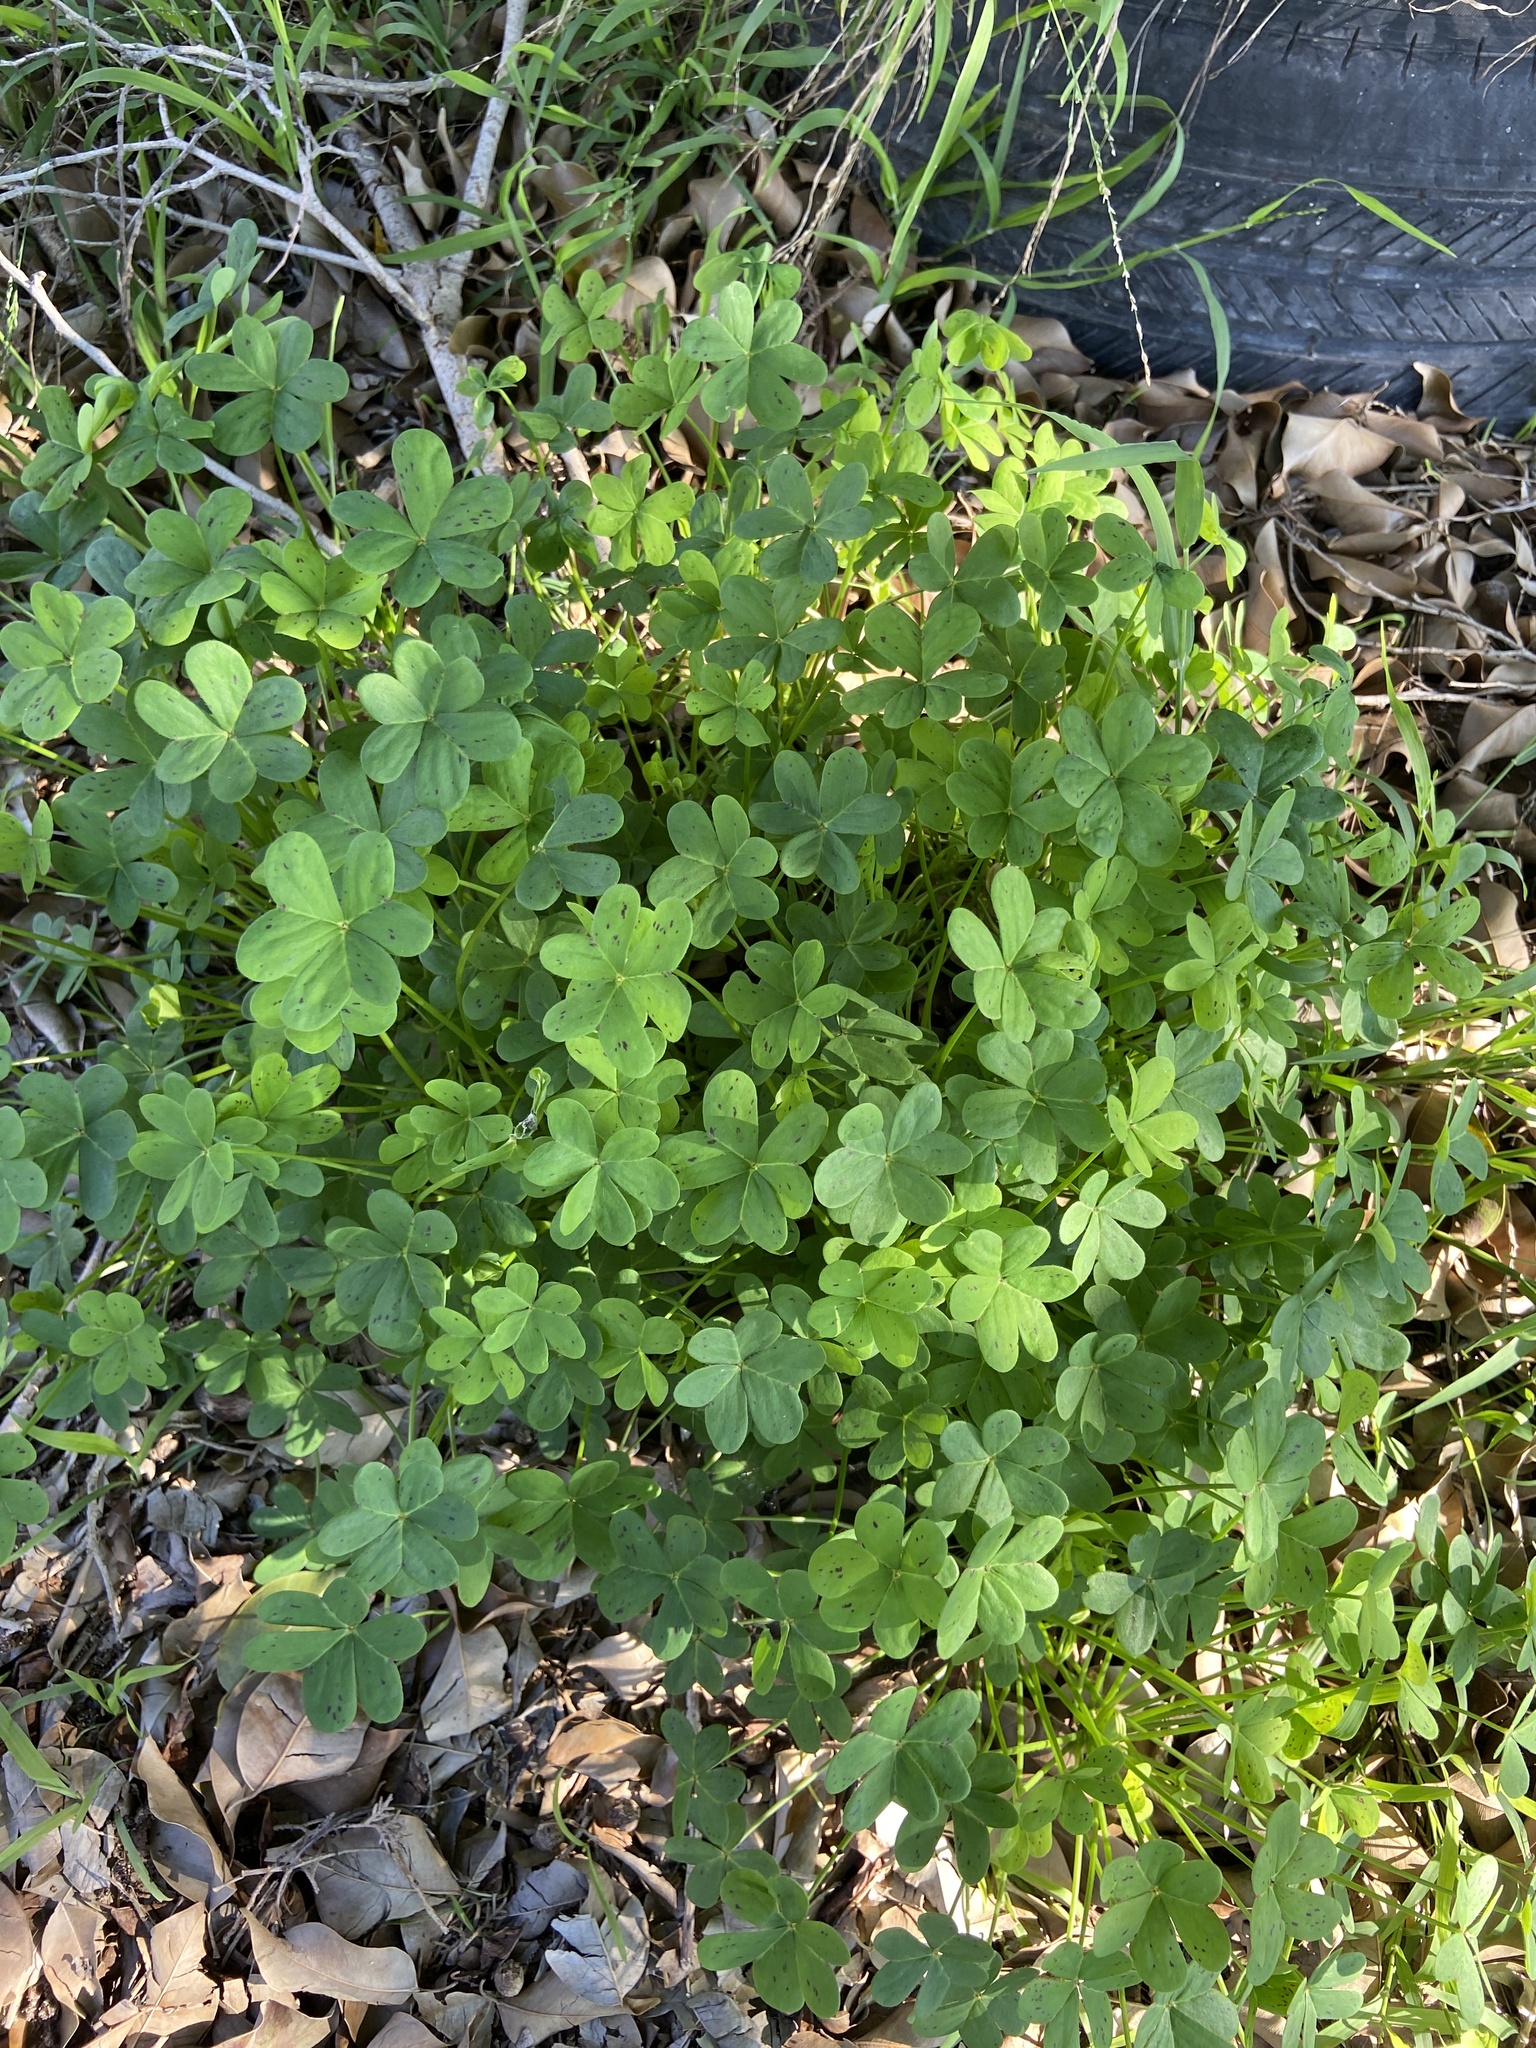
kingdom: Plantae
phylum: Tracheophyta
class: Magnoliopsida
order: Oxalidales
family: Oxalidaceae
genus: Oxalis
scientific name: Oxalis pes-caprae
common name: Bermuda-buttercup
